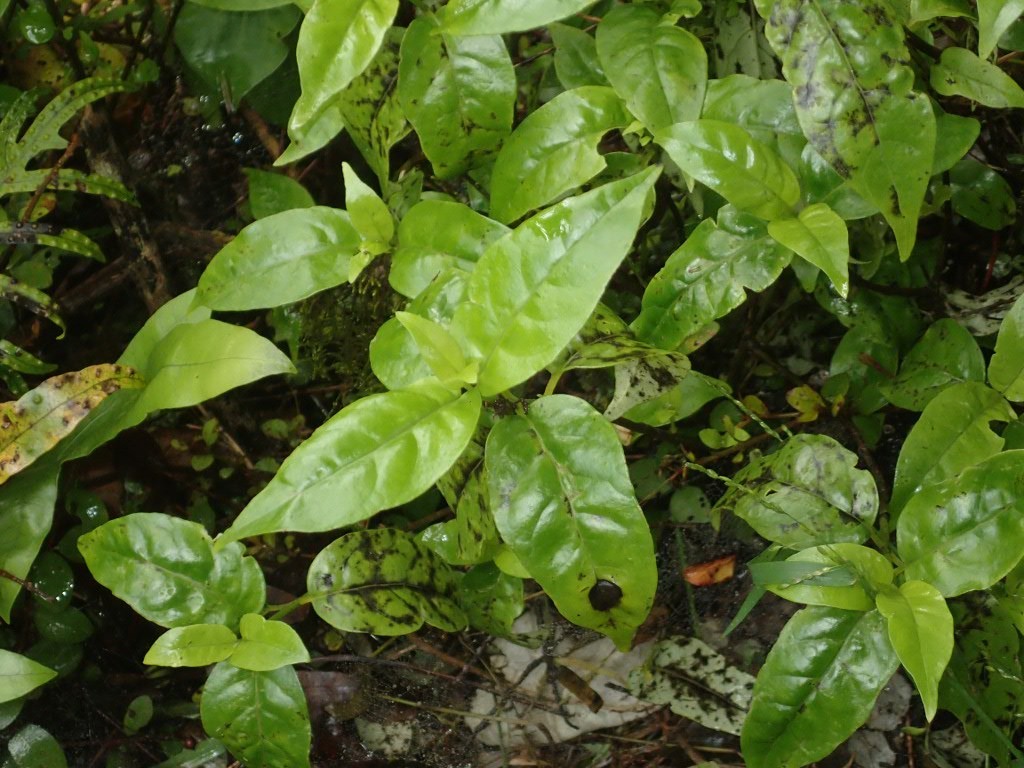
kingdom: Plantae
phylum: Tracheophyta
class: Magnoliopsida
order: Gentianales
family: Loganiaceae
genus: Geniostoma
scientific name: Geniostoma ligustrifolium
